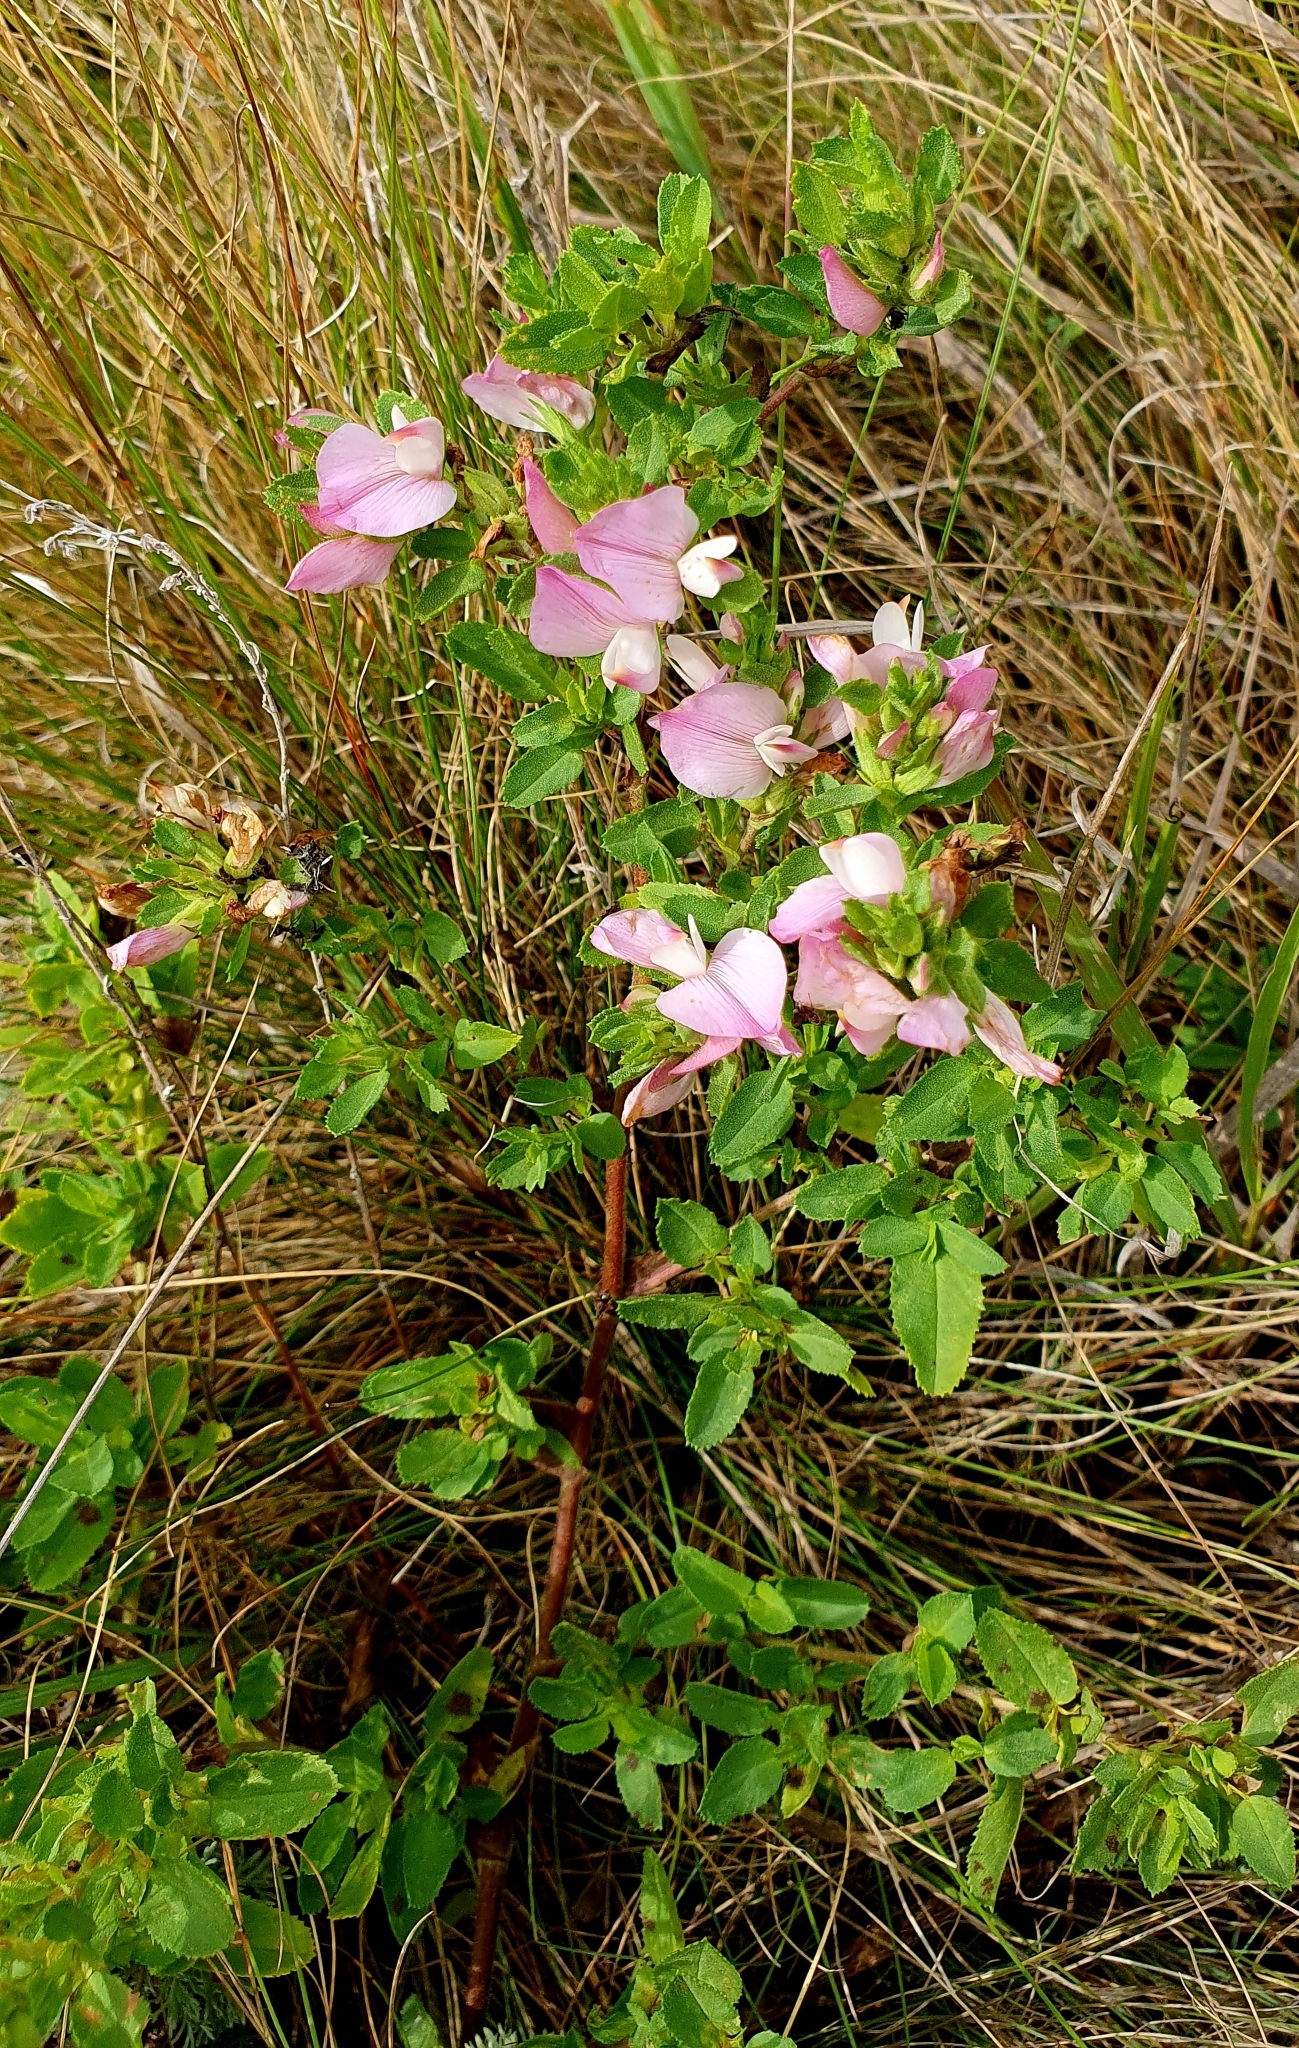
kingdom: Plantae
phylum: Tracheophyta
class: Magnoliopsida
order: Fabales
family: Fabaceae
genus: Ononis
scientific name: Ononis arvensis
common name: Field restharrow
